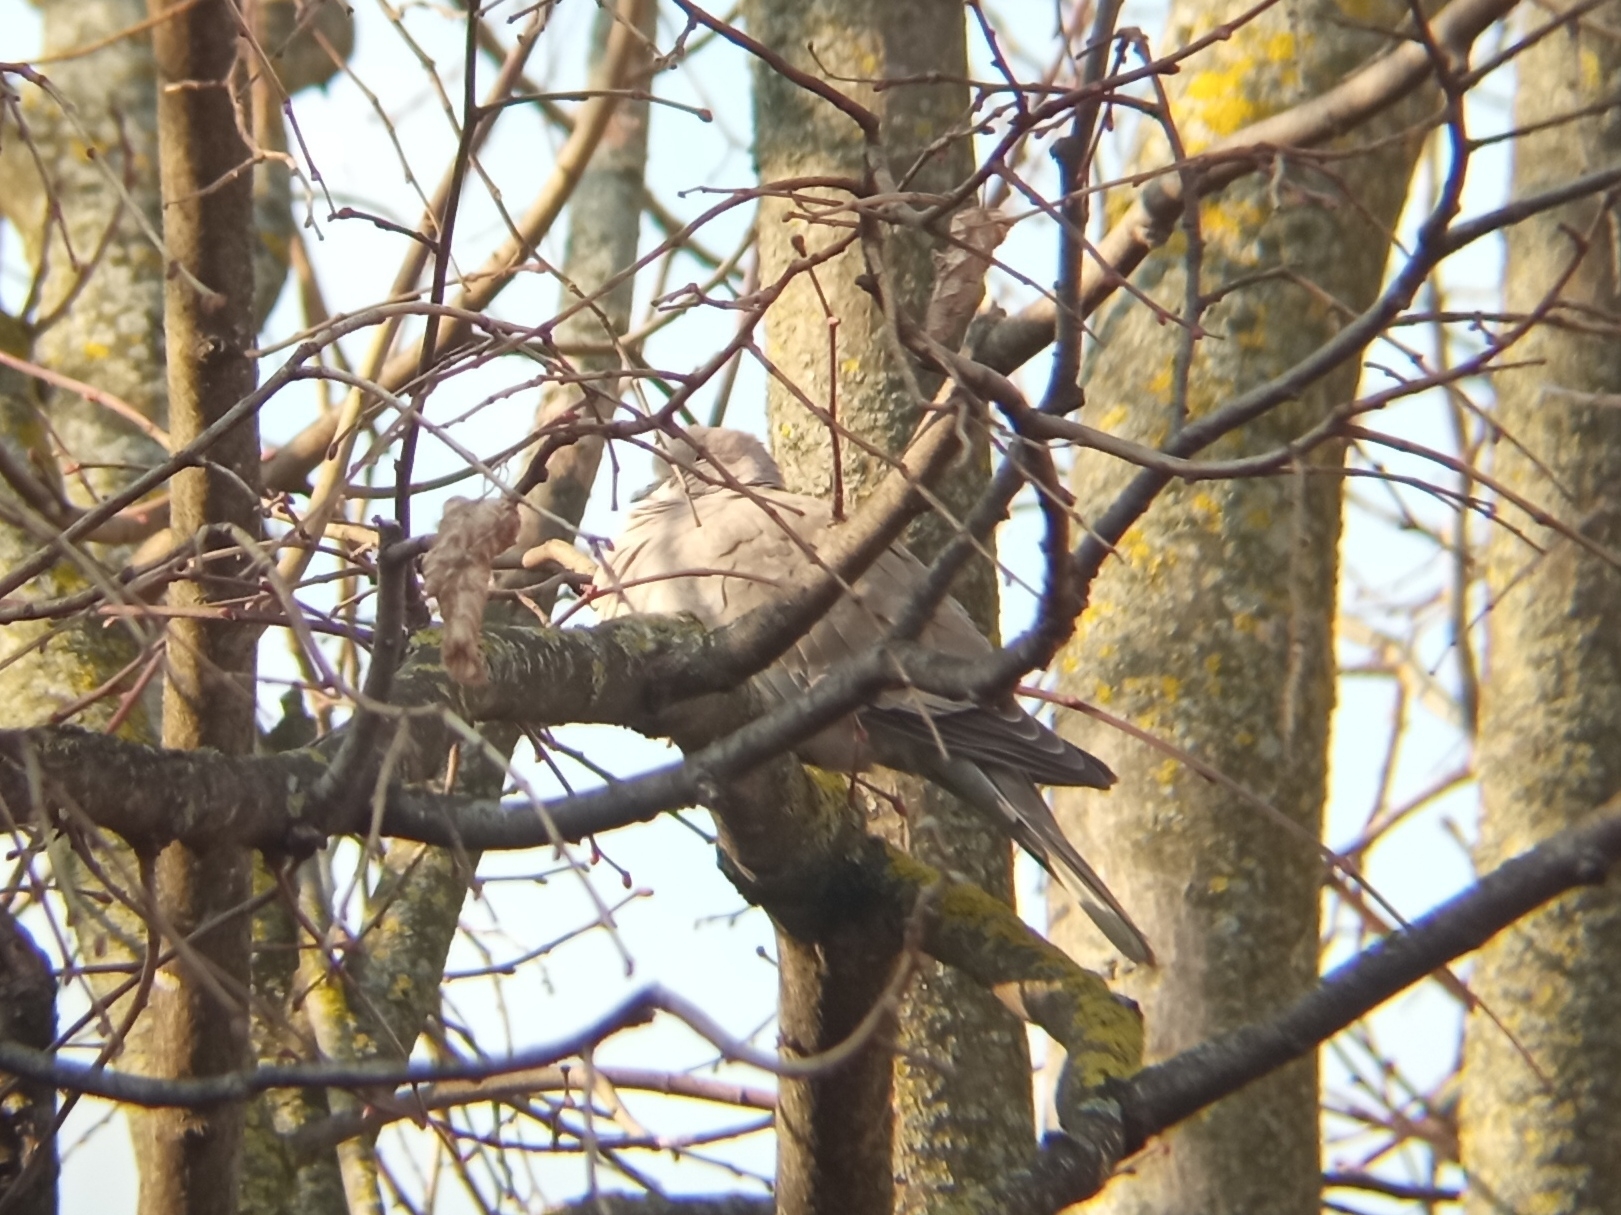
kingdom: Animalia
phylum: Chordata
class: Aves
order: Columbiformes
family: Columbidae
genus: Streptopelia
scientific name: Streptopelia decaocto
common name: Eurasian collared dove
